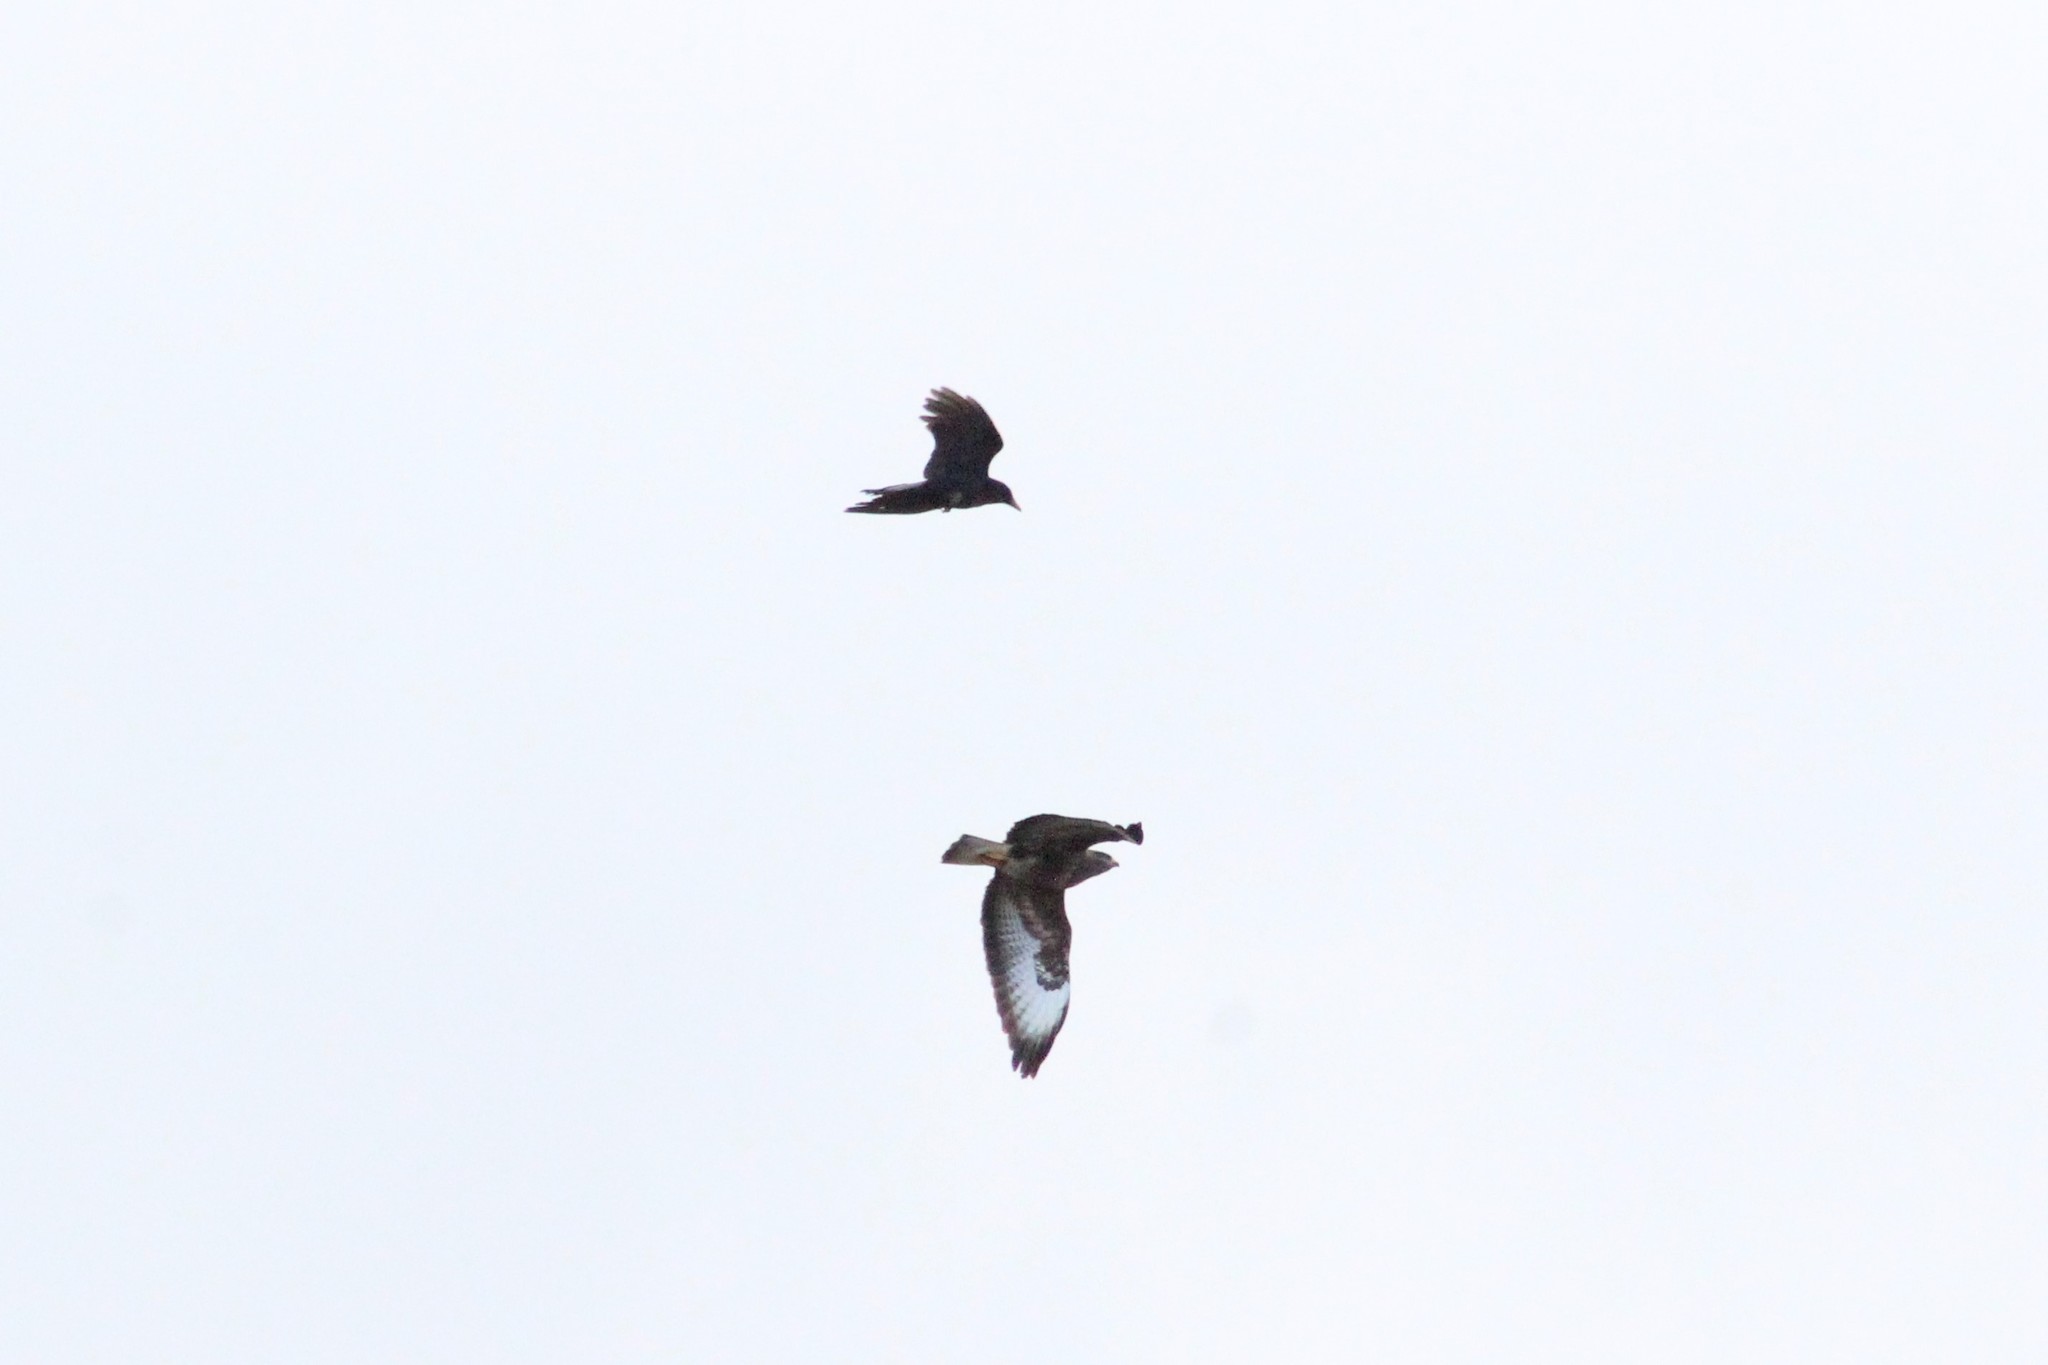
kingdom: Animalia
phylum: Chordata
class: Aves
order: Accipitriformes
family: Accipitridae
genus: Buteo
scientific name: Buteo buteo
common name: Common buzzard
